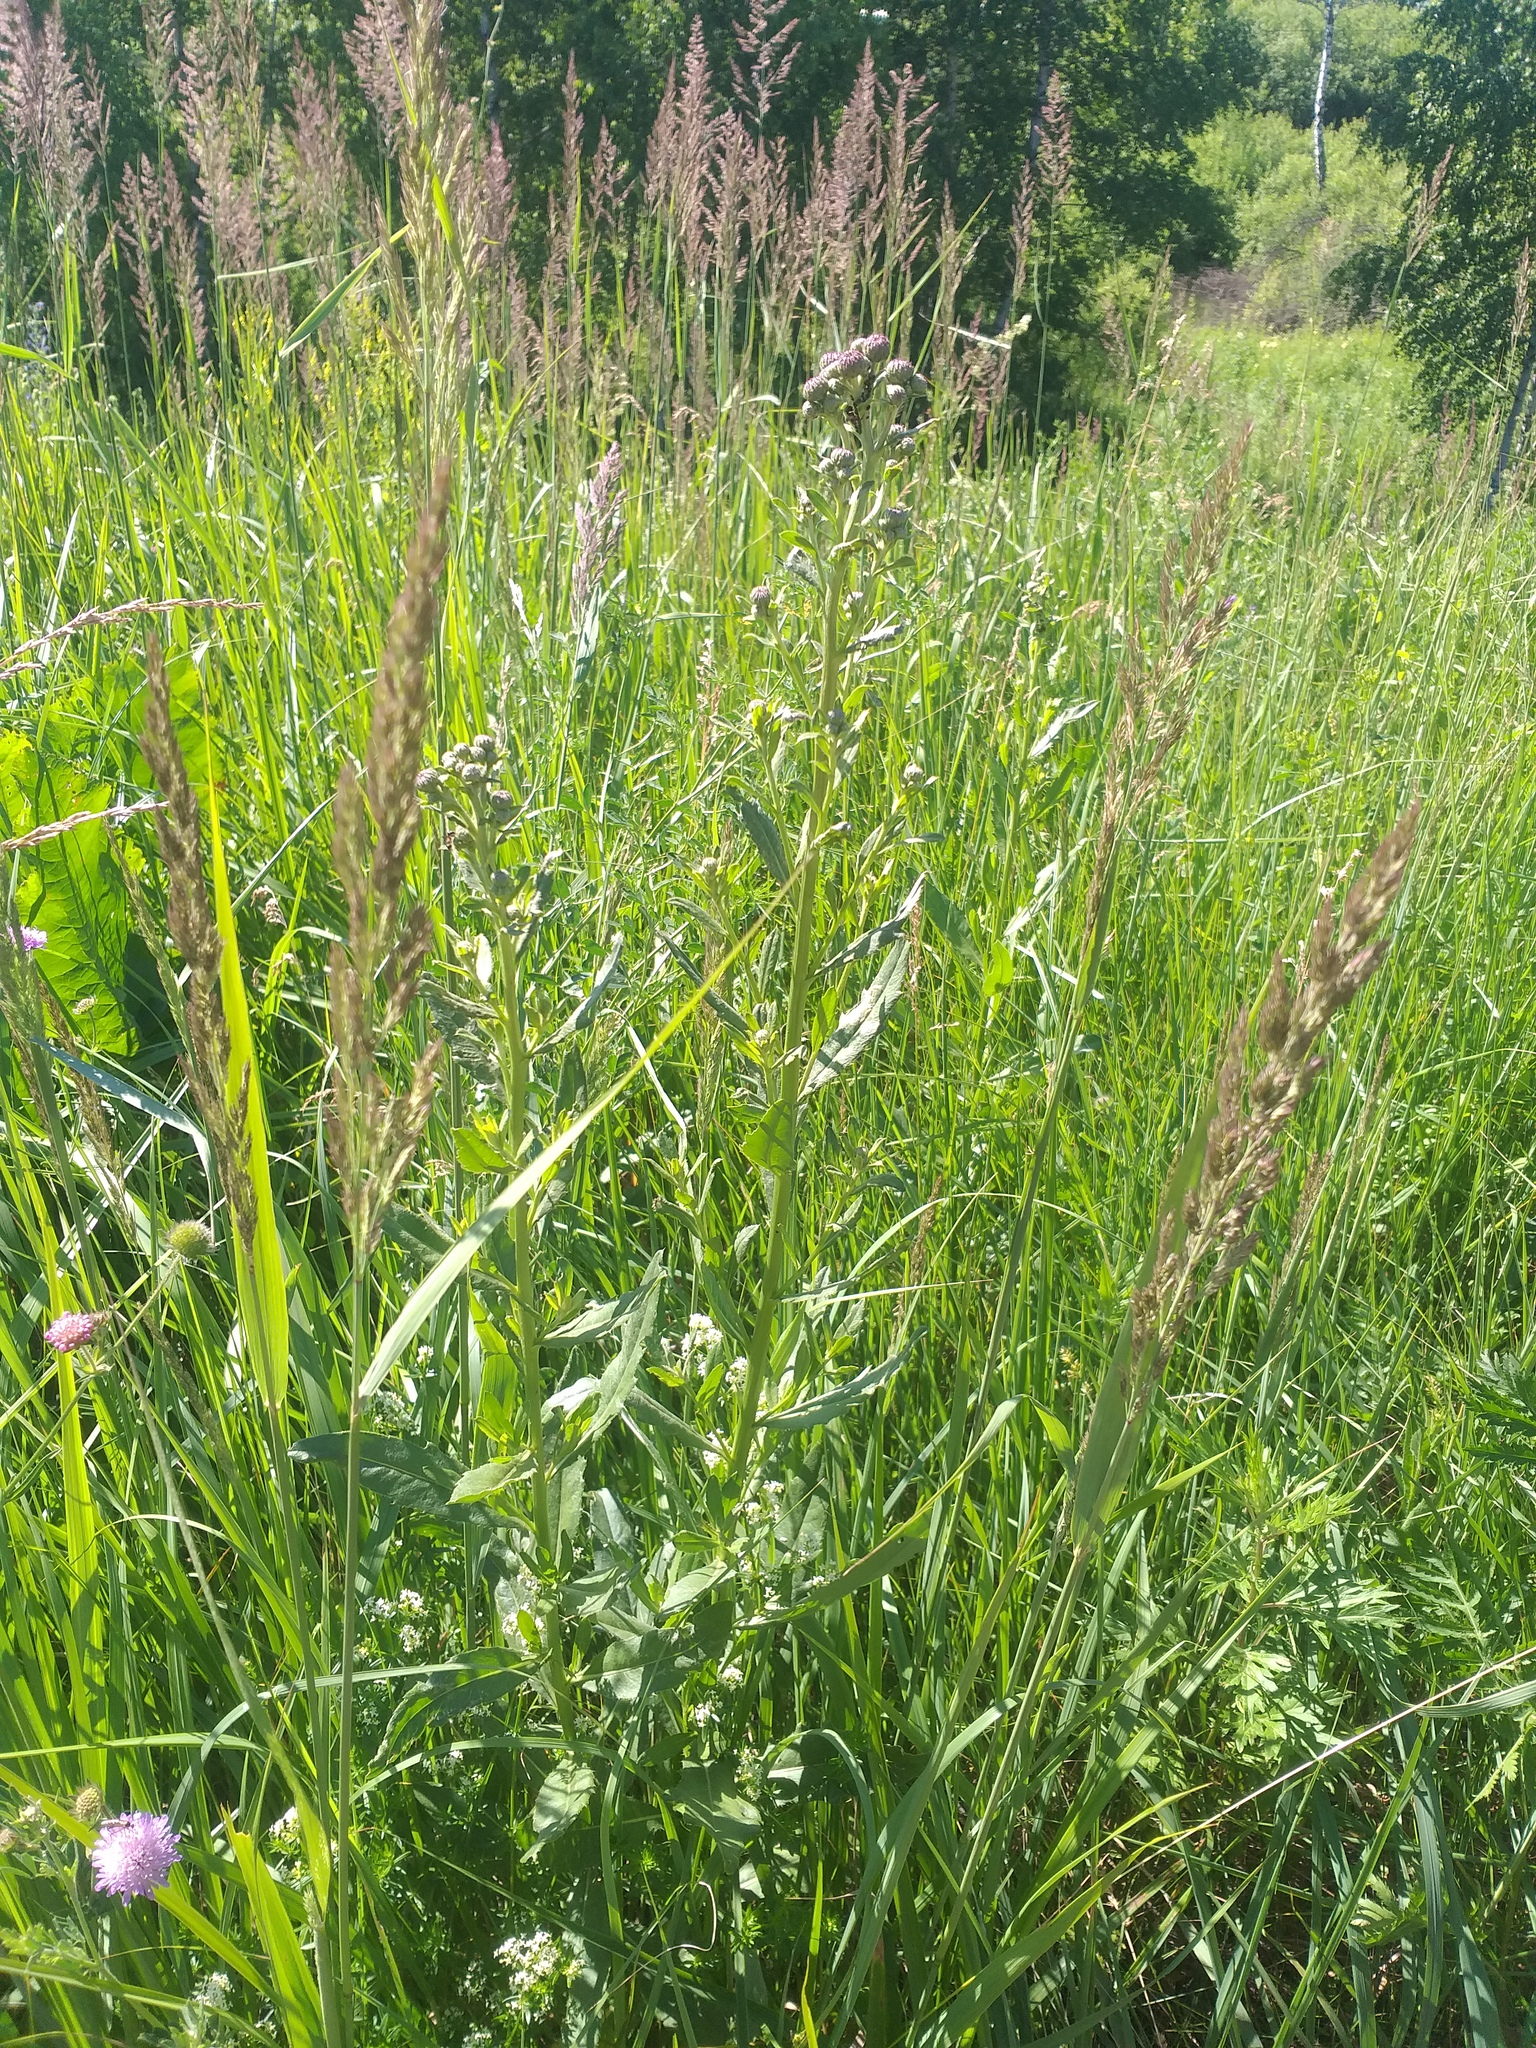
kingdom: Plantae
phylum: Tracheophyta
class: Magnoliopsida
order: Asterales
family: Asteraceae
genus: Cirsium
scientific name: Cirsium arvense
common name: Creeping thistle
